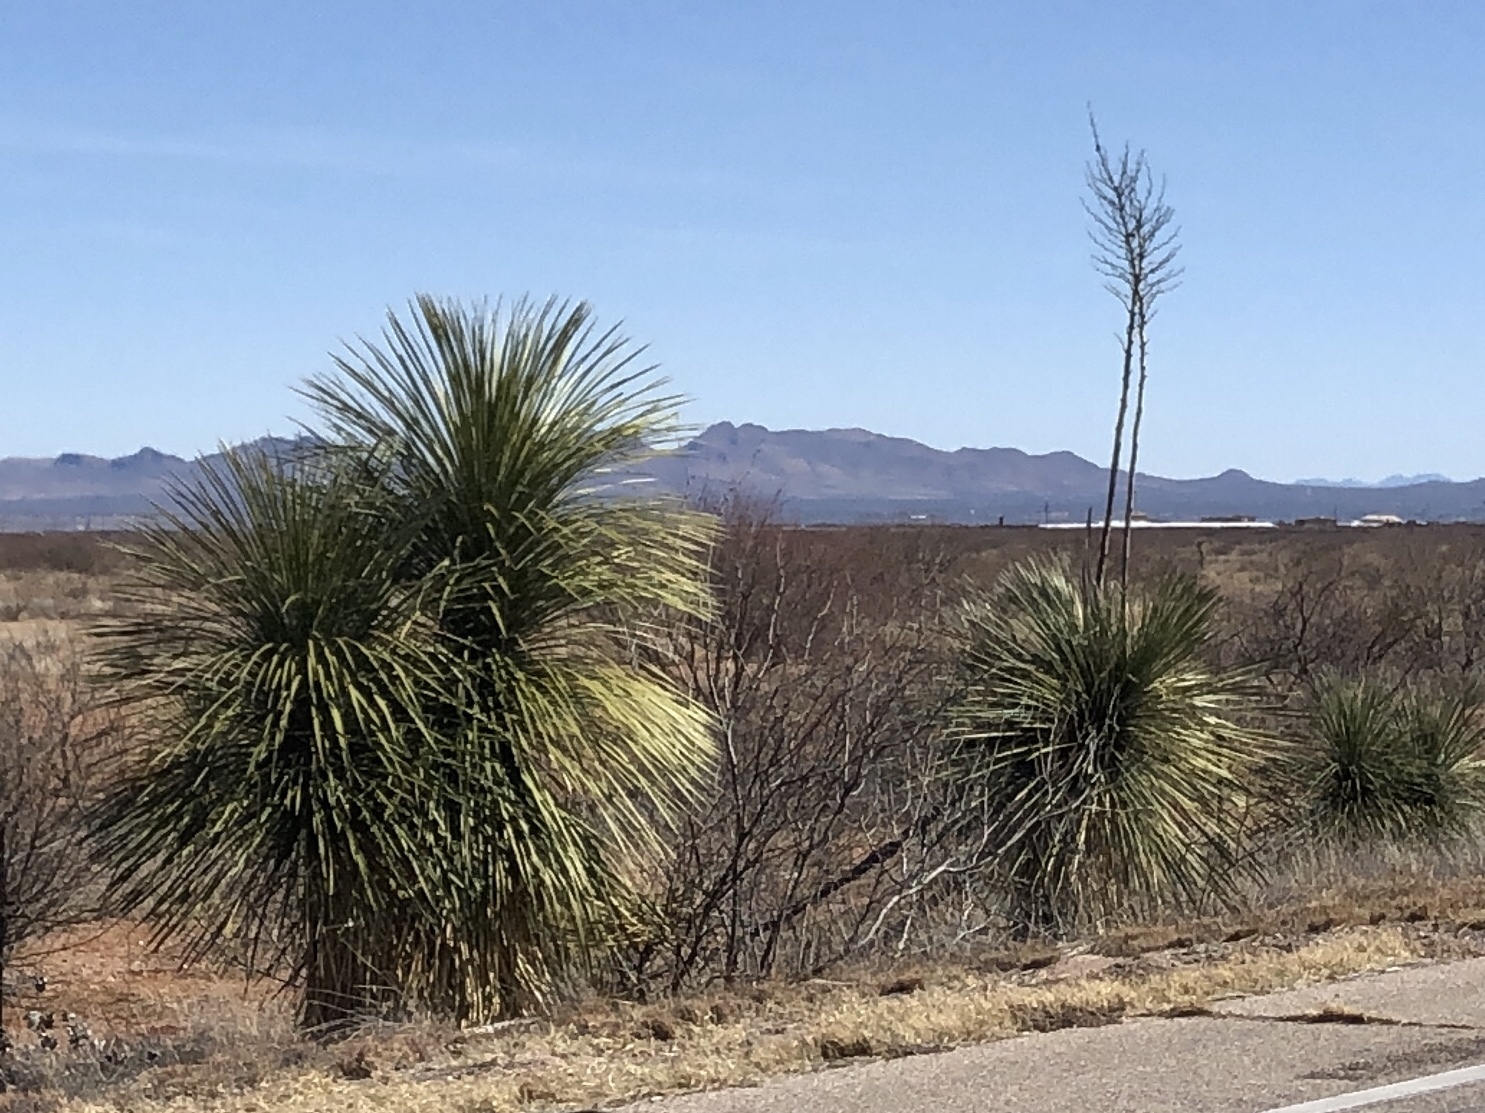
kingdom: Plantae
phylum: Tracheophyta
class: Liliopsida
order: Asparagales
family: Asparagaceae
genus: Yucca
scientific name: Yucca elata
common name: Palmella
